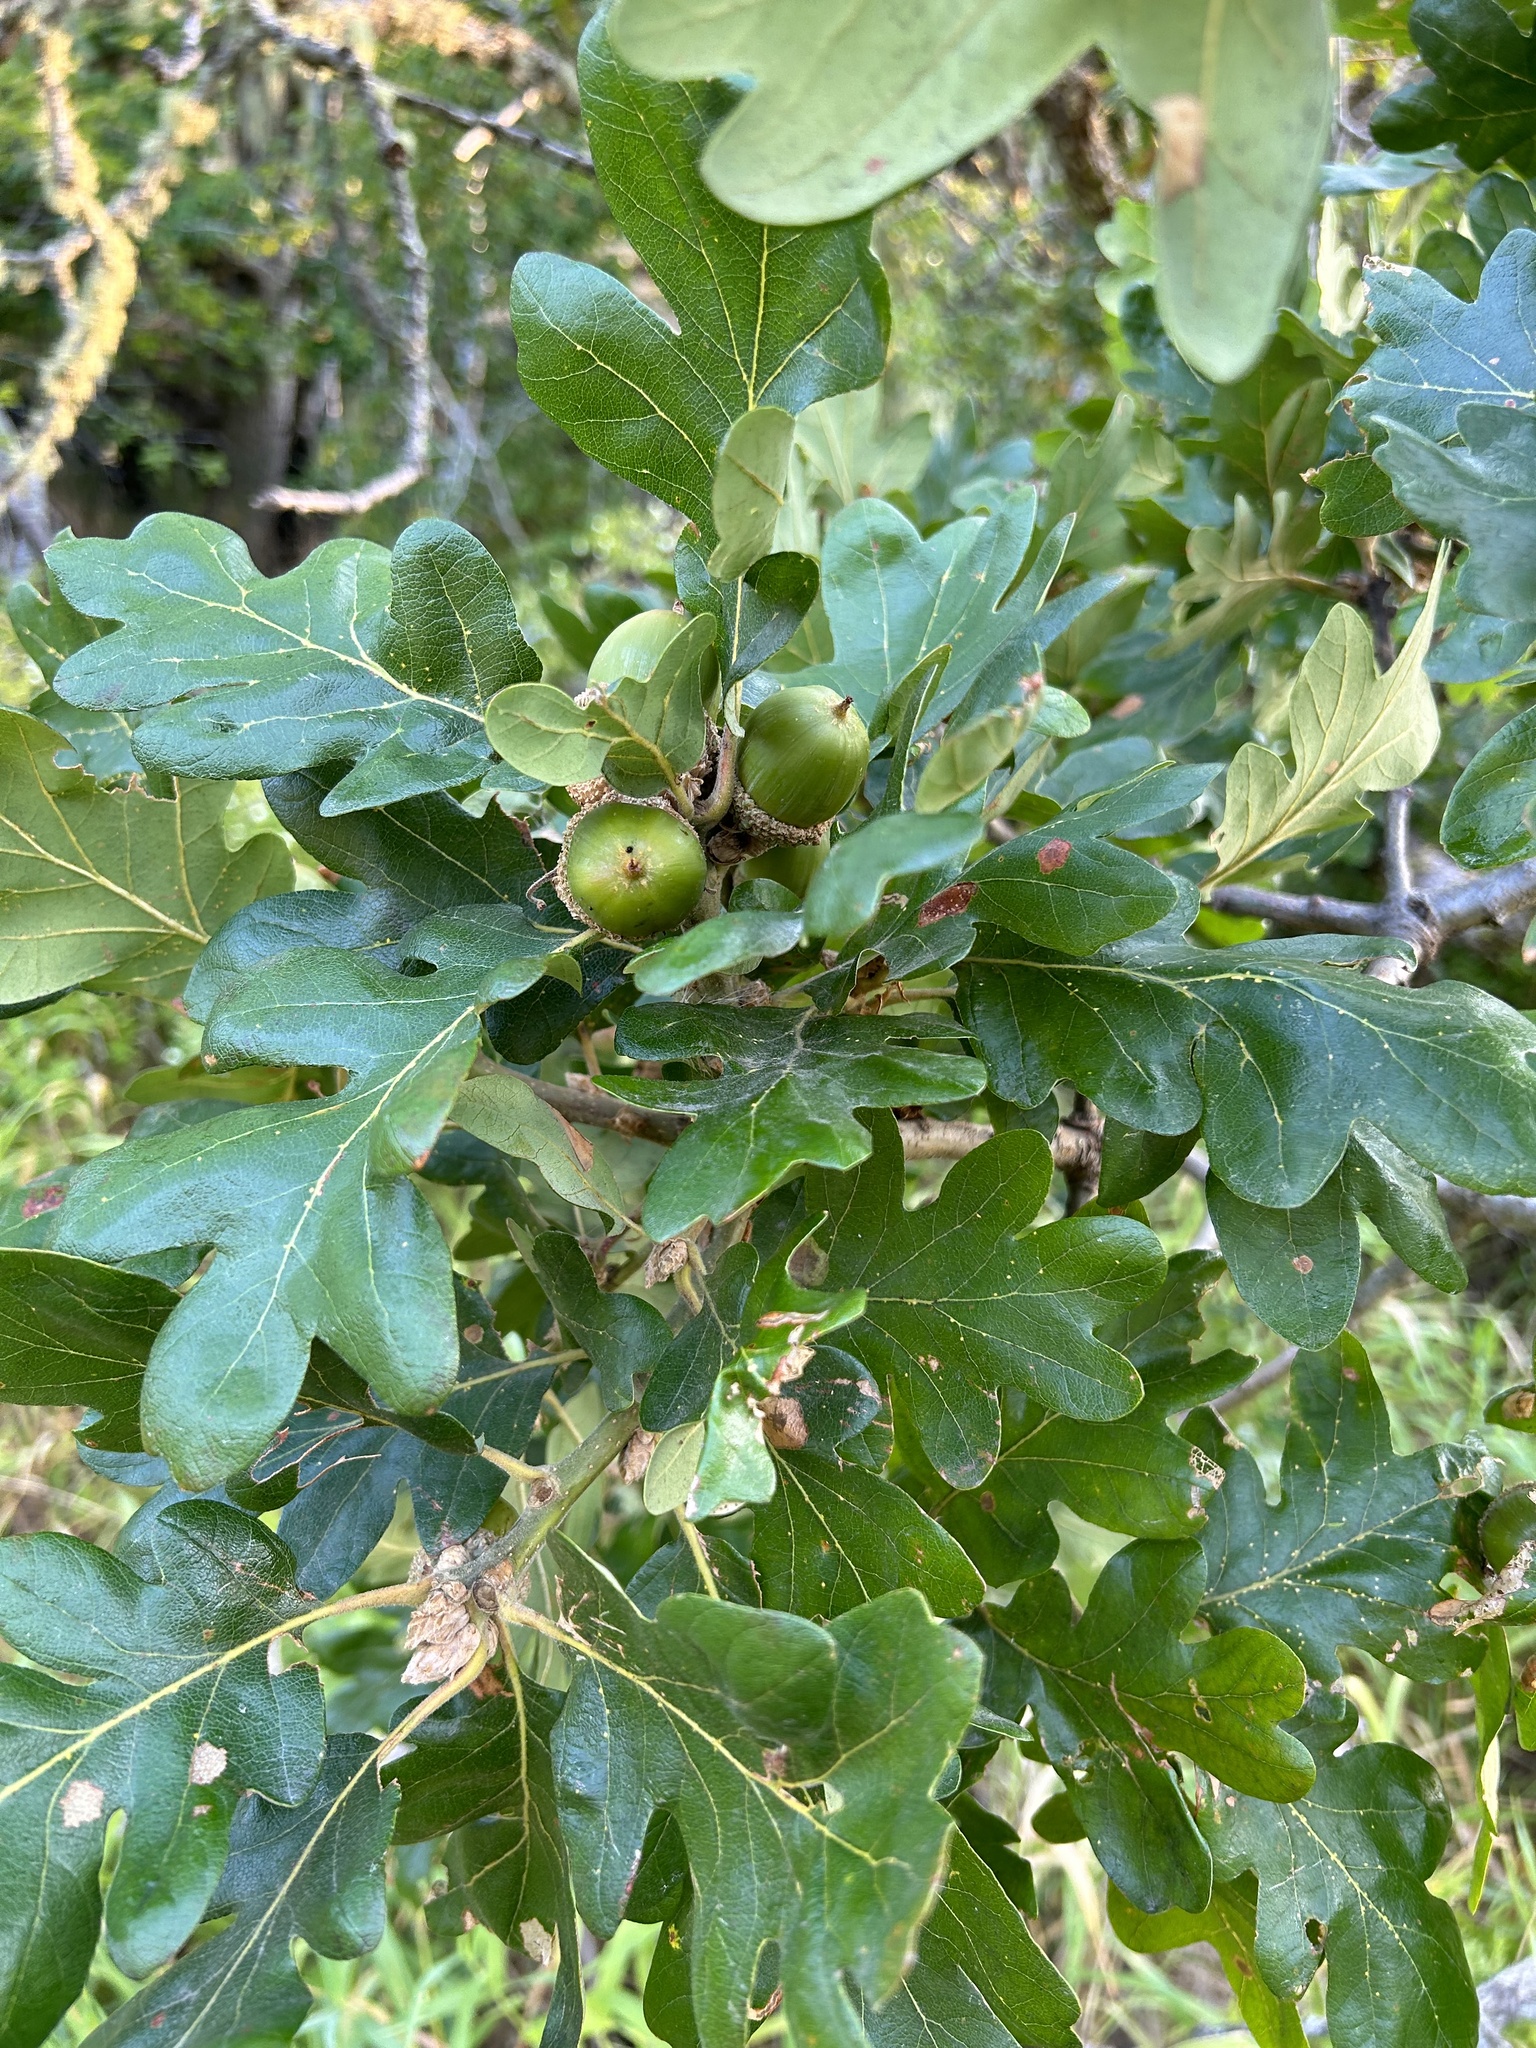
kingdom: Plantae
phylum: Tracheophyta
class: Magnoliopsida
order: Fagales
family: Fagaceae
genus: Quercus
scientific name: Quercus garryana
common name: Garry oak
